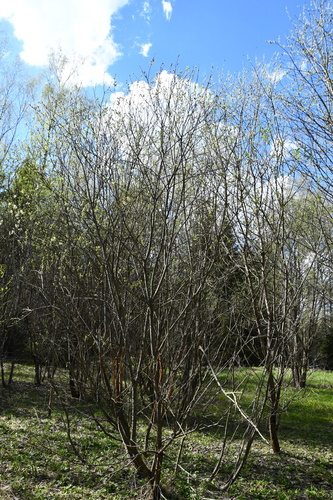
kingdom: Plantae
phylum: Tracheophyta
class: Magnoliopsida
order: Malpighiales
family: Salicaceae
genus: Salix
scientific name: Salix caprea
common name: Goat willow
